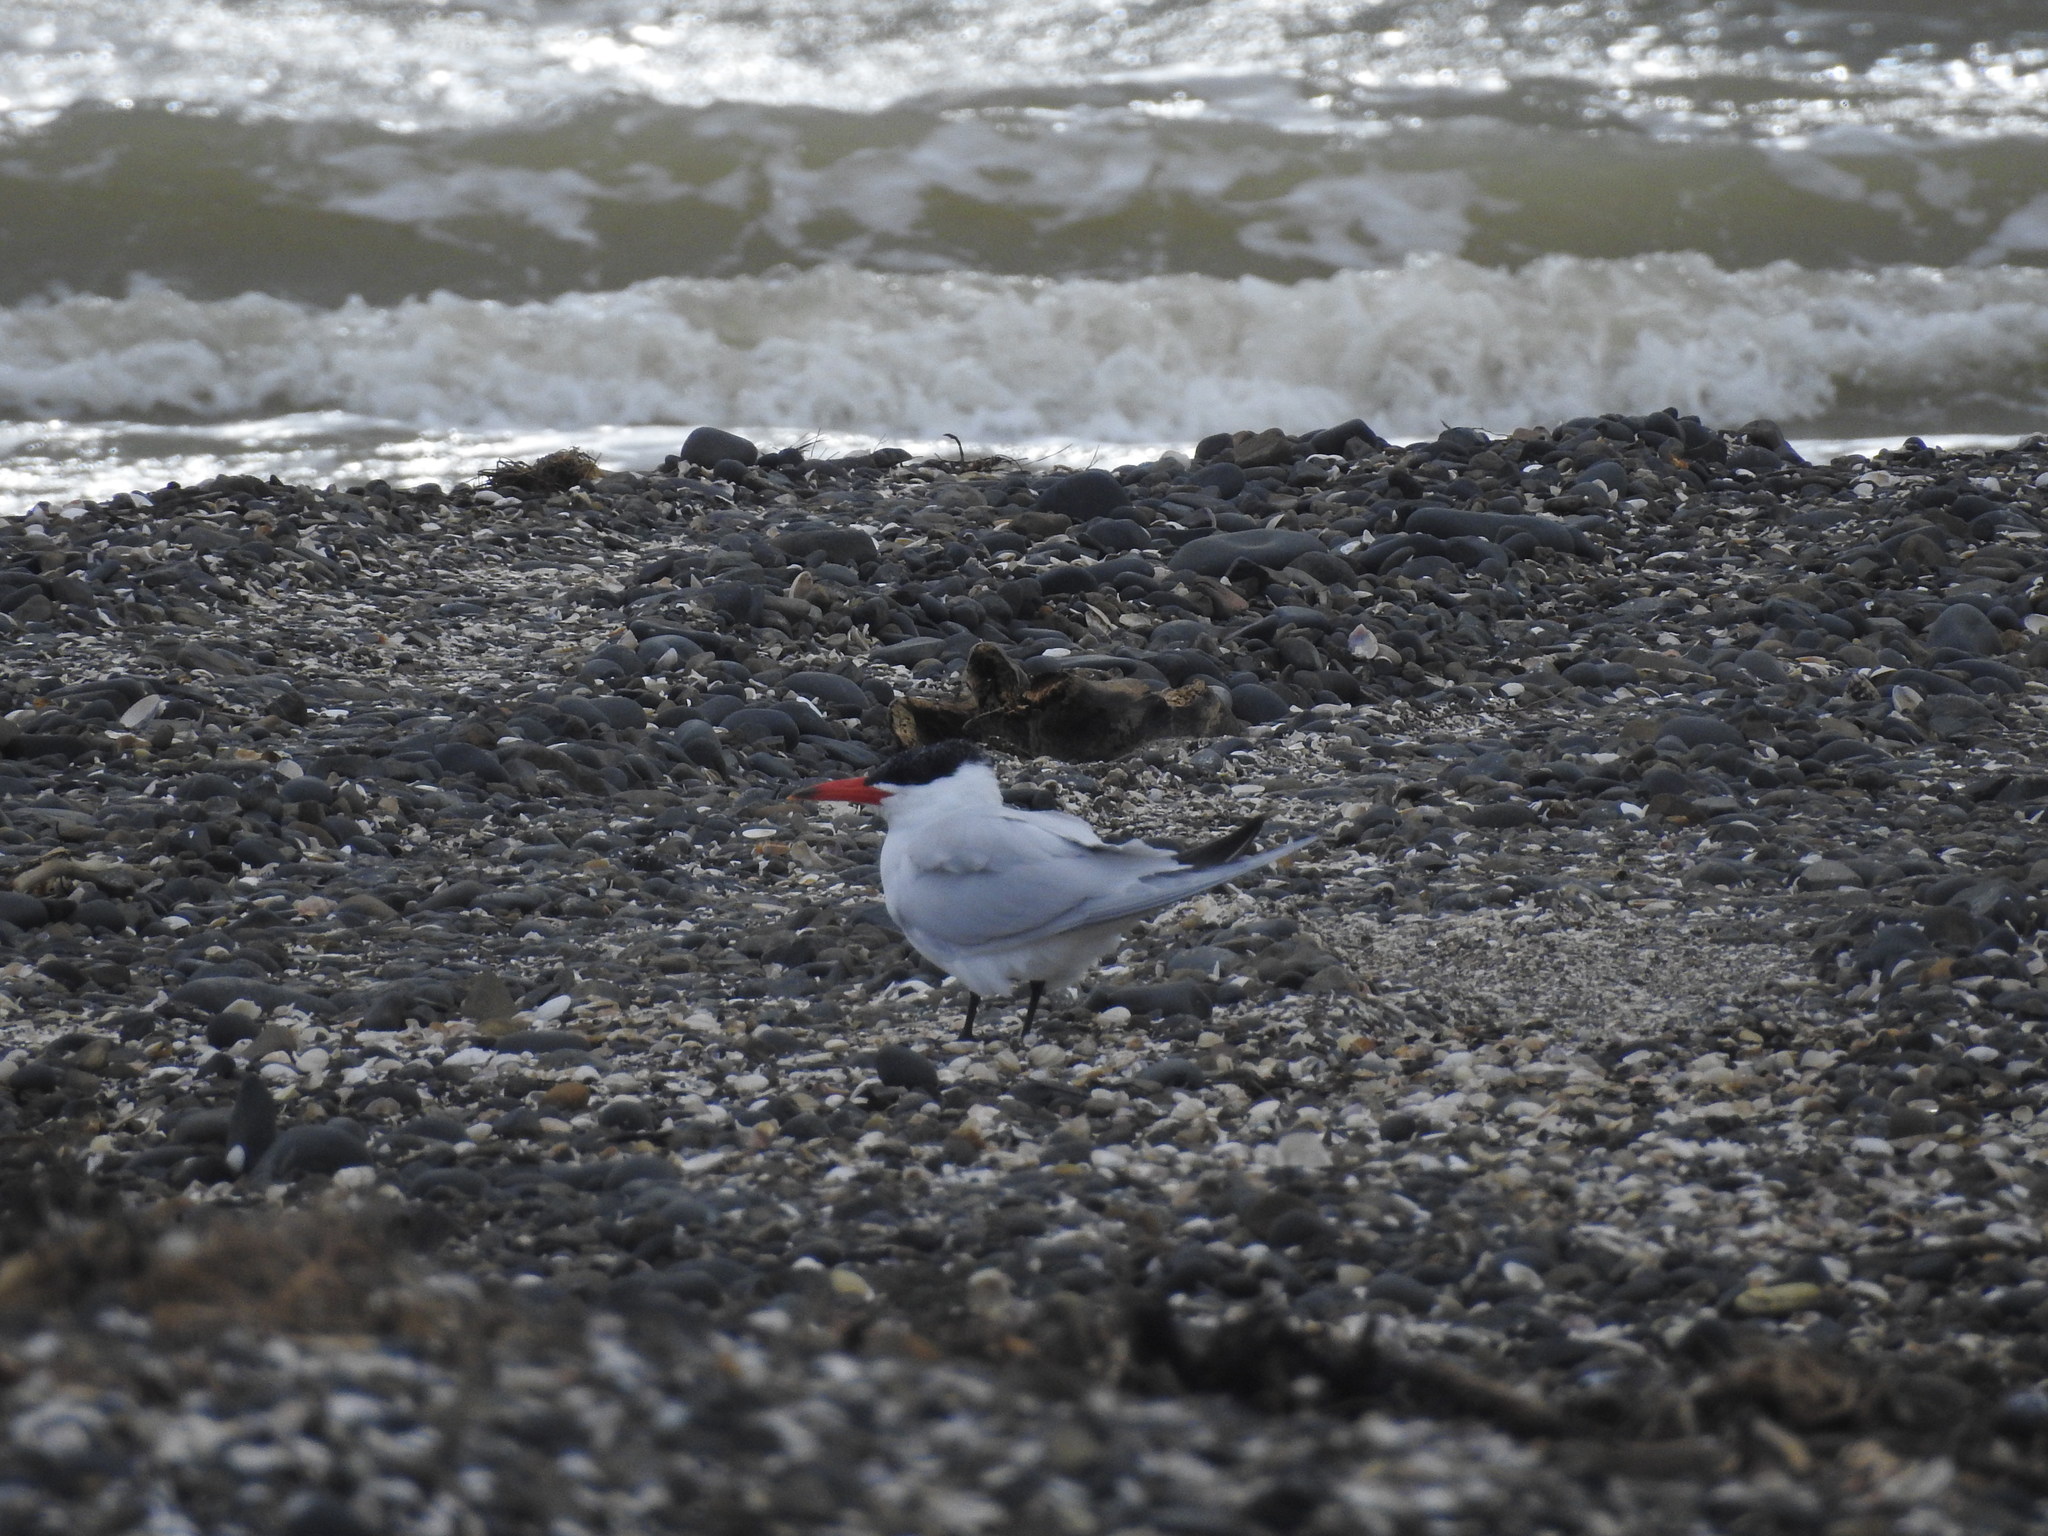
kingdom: Animalia
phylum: Chordata
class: Aves
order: Charadriiformes
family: Laridae
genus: Hydroprogne
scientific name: Hydroprogne caspia
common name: Caspian tern
